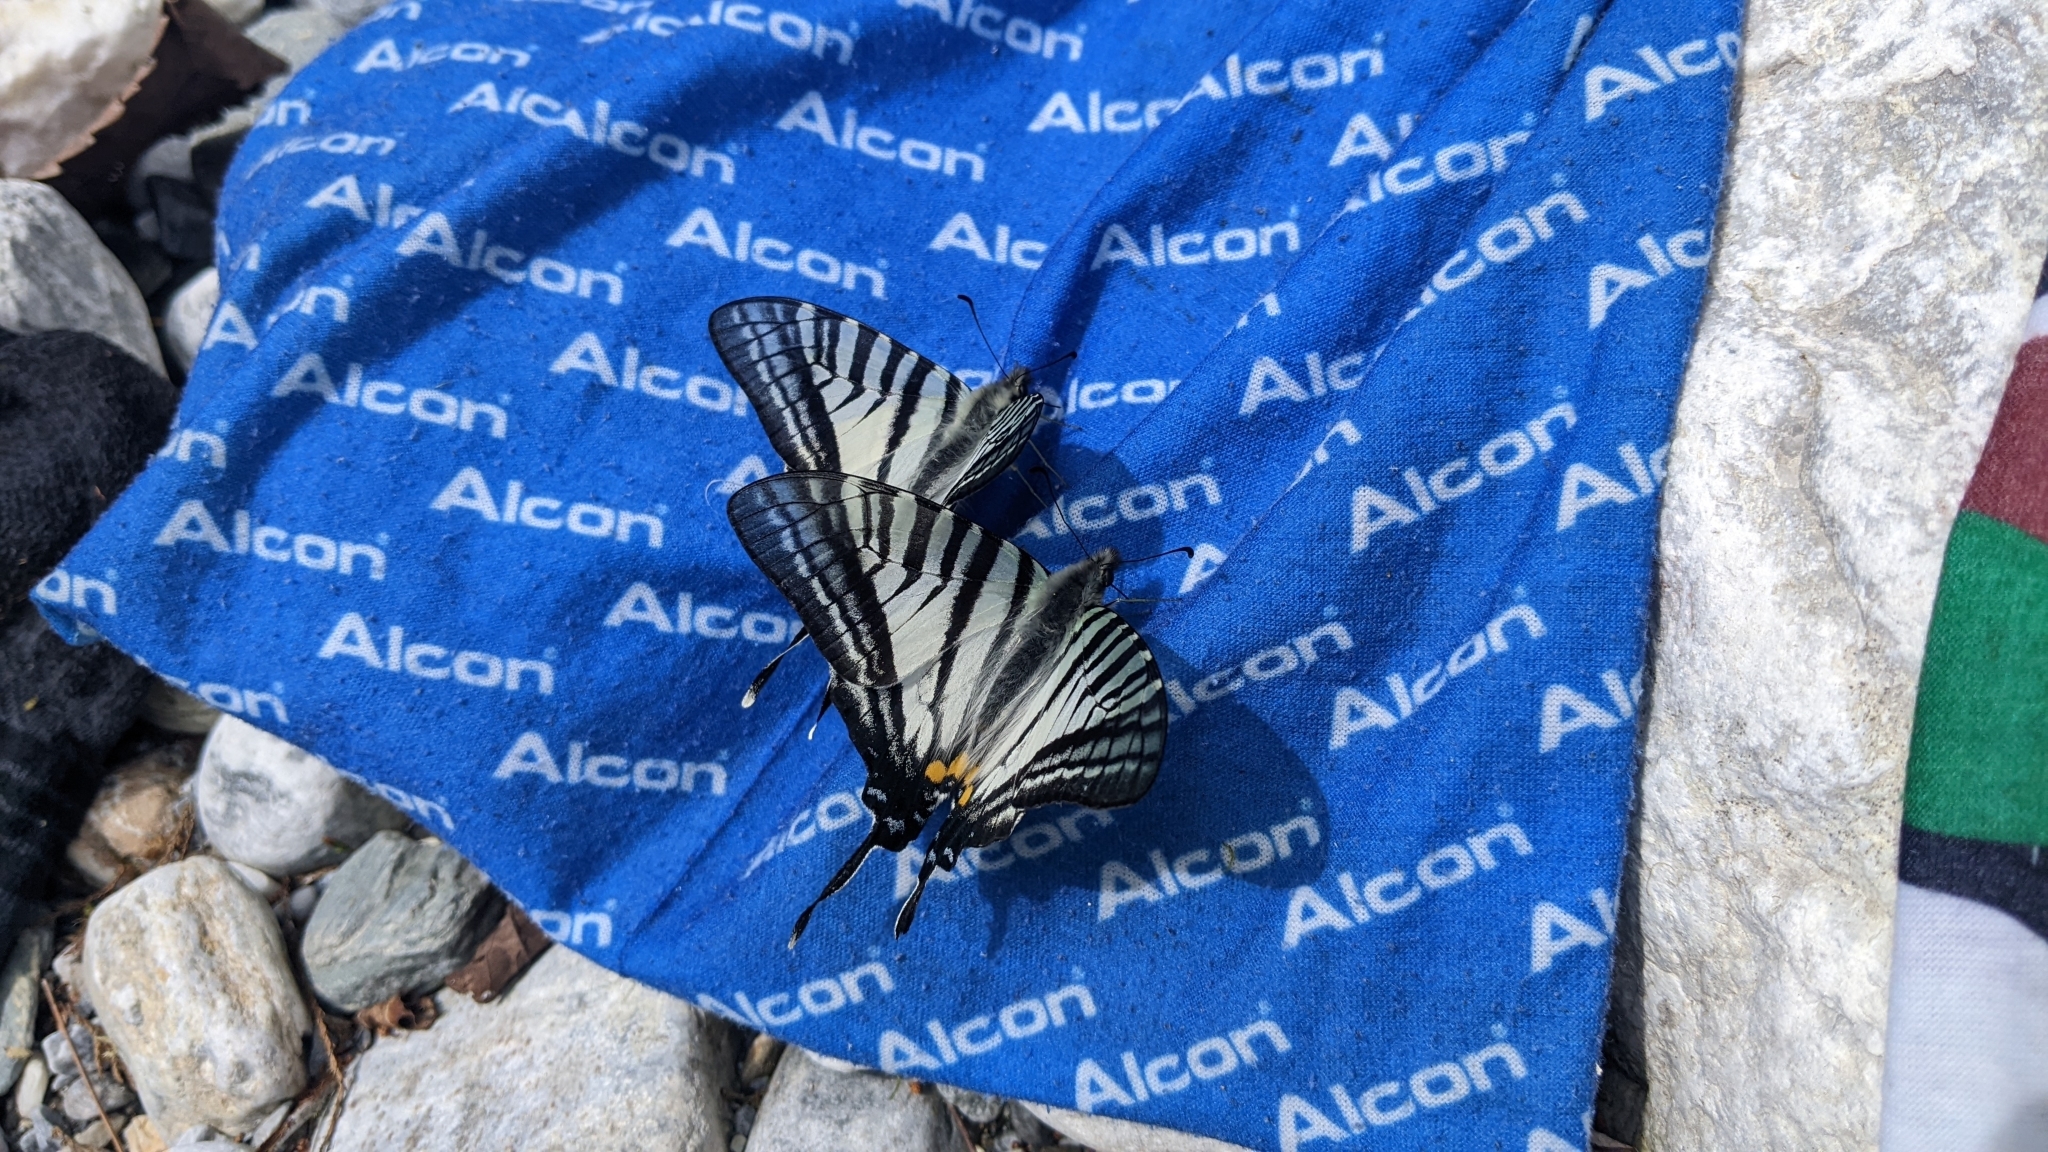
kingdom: Animalia
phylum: Arthropoda
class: Insecta
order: Lepidoptera
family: Papilionidae
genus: Graphium
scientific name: Graphium eurous
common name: Sixbar swordtail
